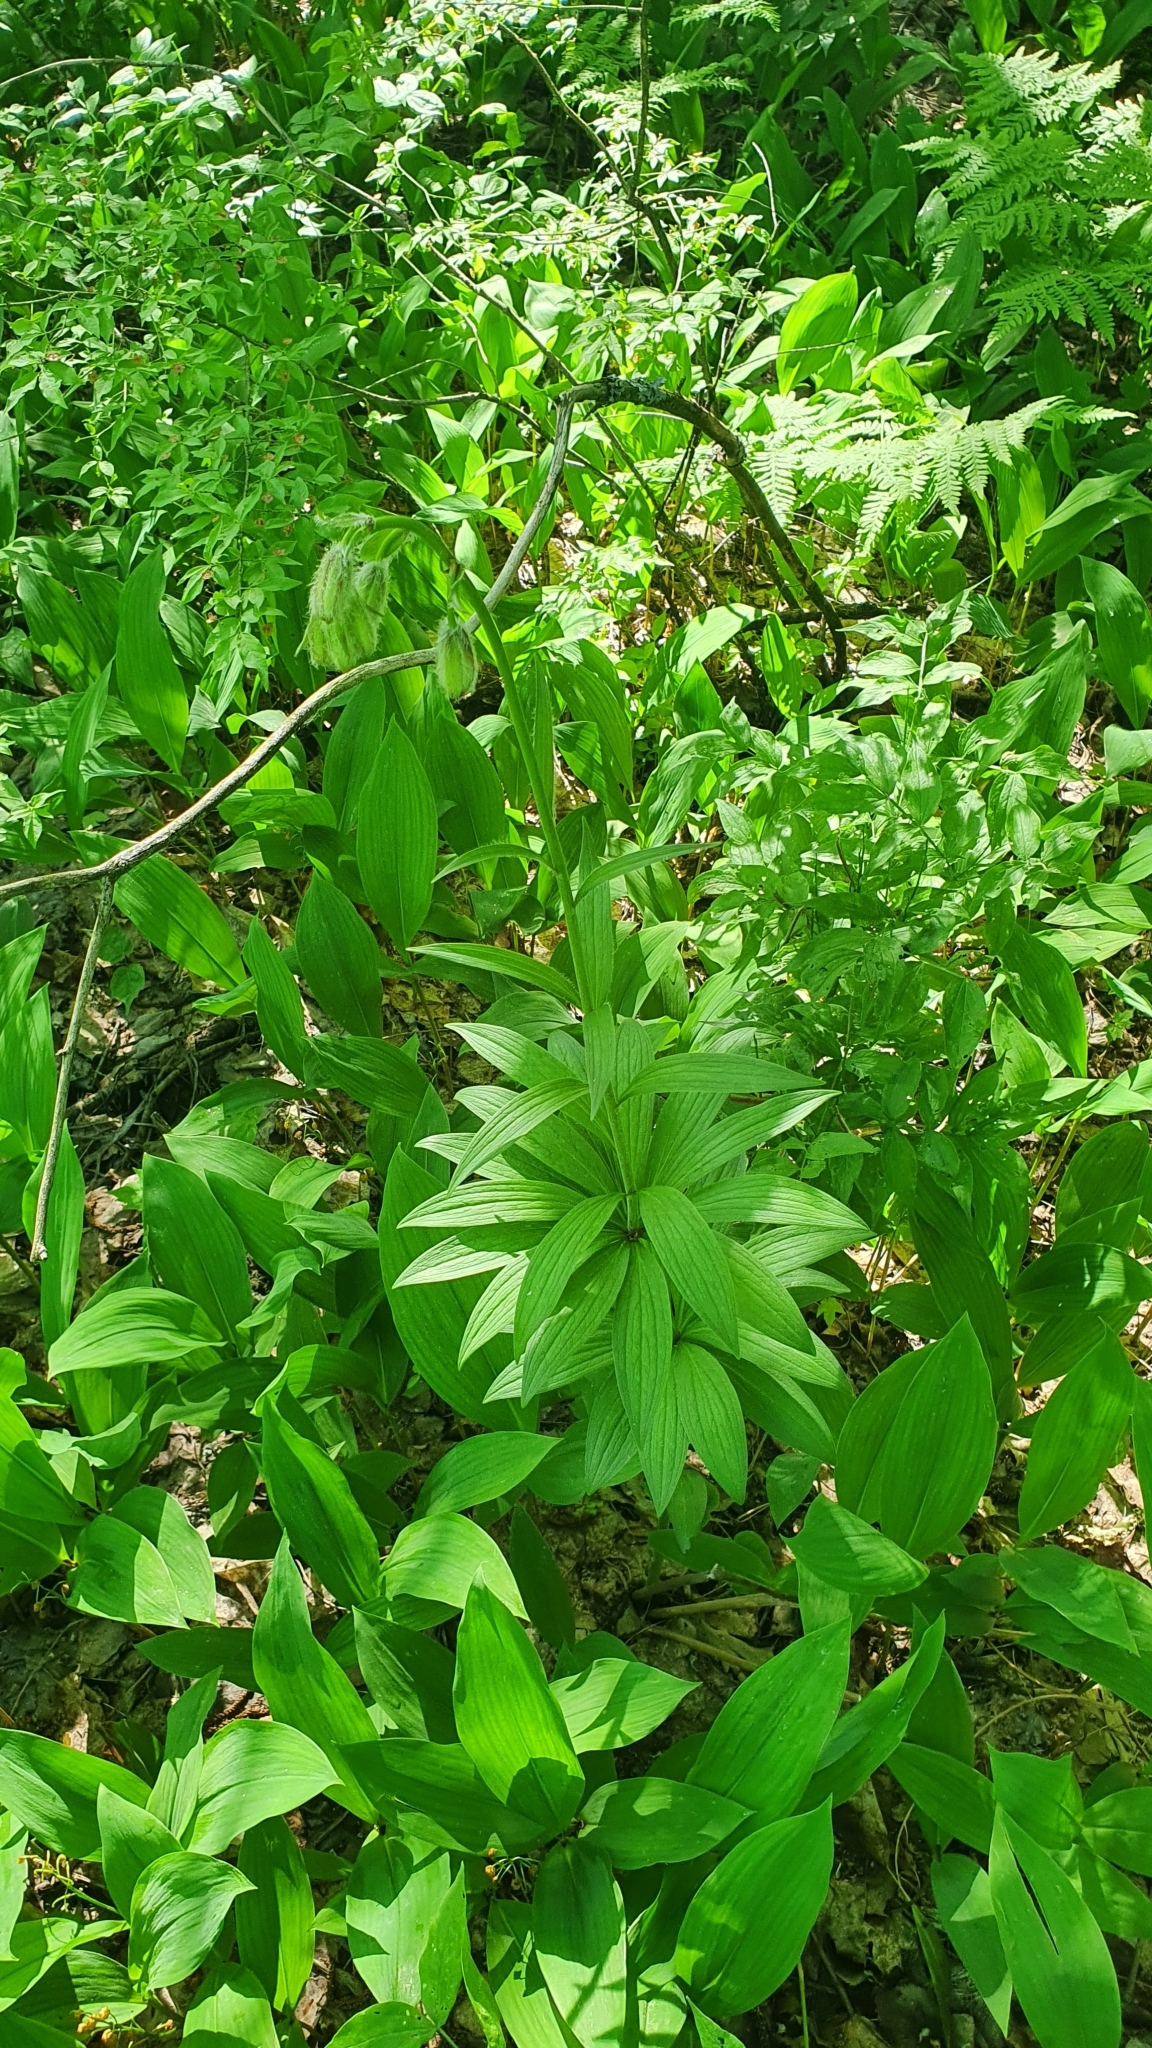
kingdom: Plantae
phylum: Tracheophyta
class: Liliopsida
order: Liliales
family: Liliaceae
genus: Lilium
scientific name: Lilium martagon
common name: Martagon lily
